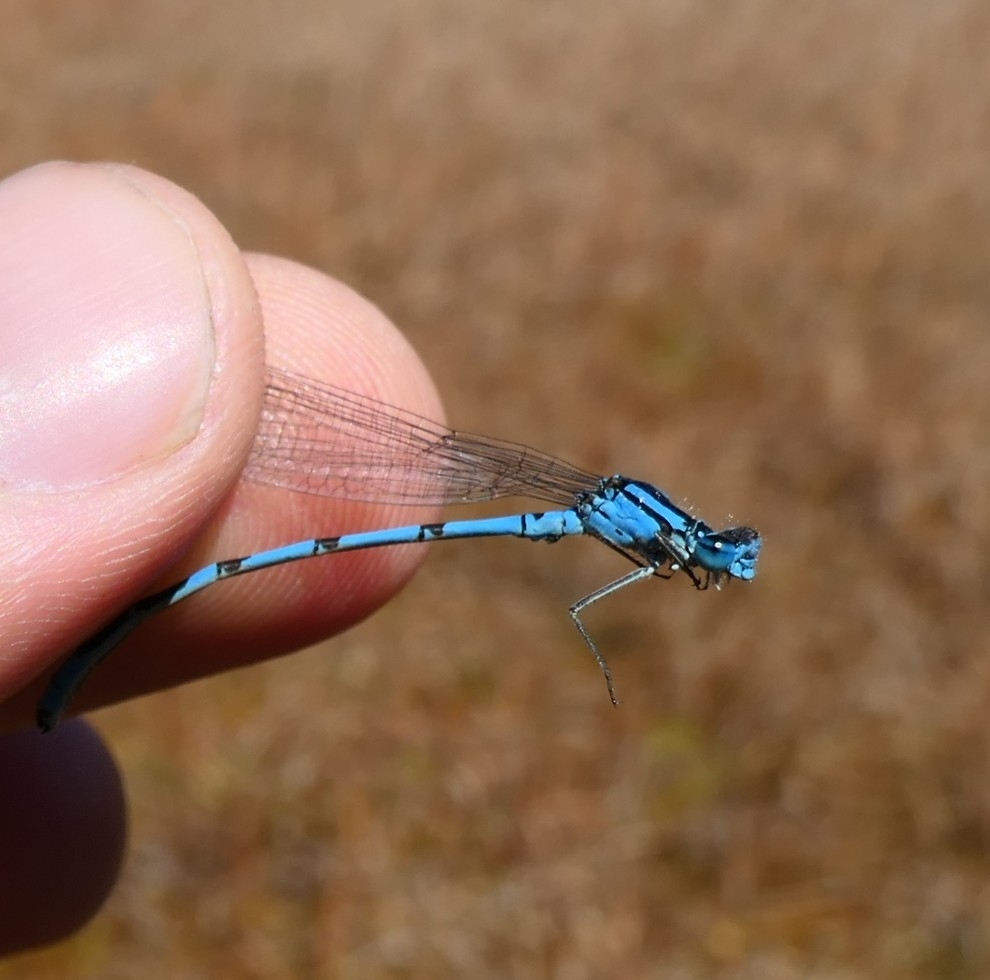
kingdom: Animalia
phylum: Arthropoda
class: Insecta
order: Odonata
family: Coenagrionidae
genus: Enallagma
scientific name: Enallagma cyathigerum
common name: Common blue damselfly
